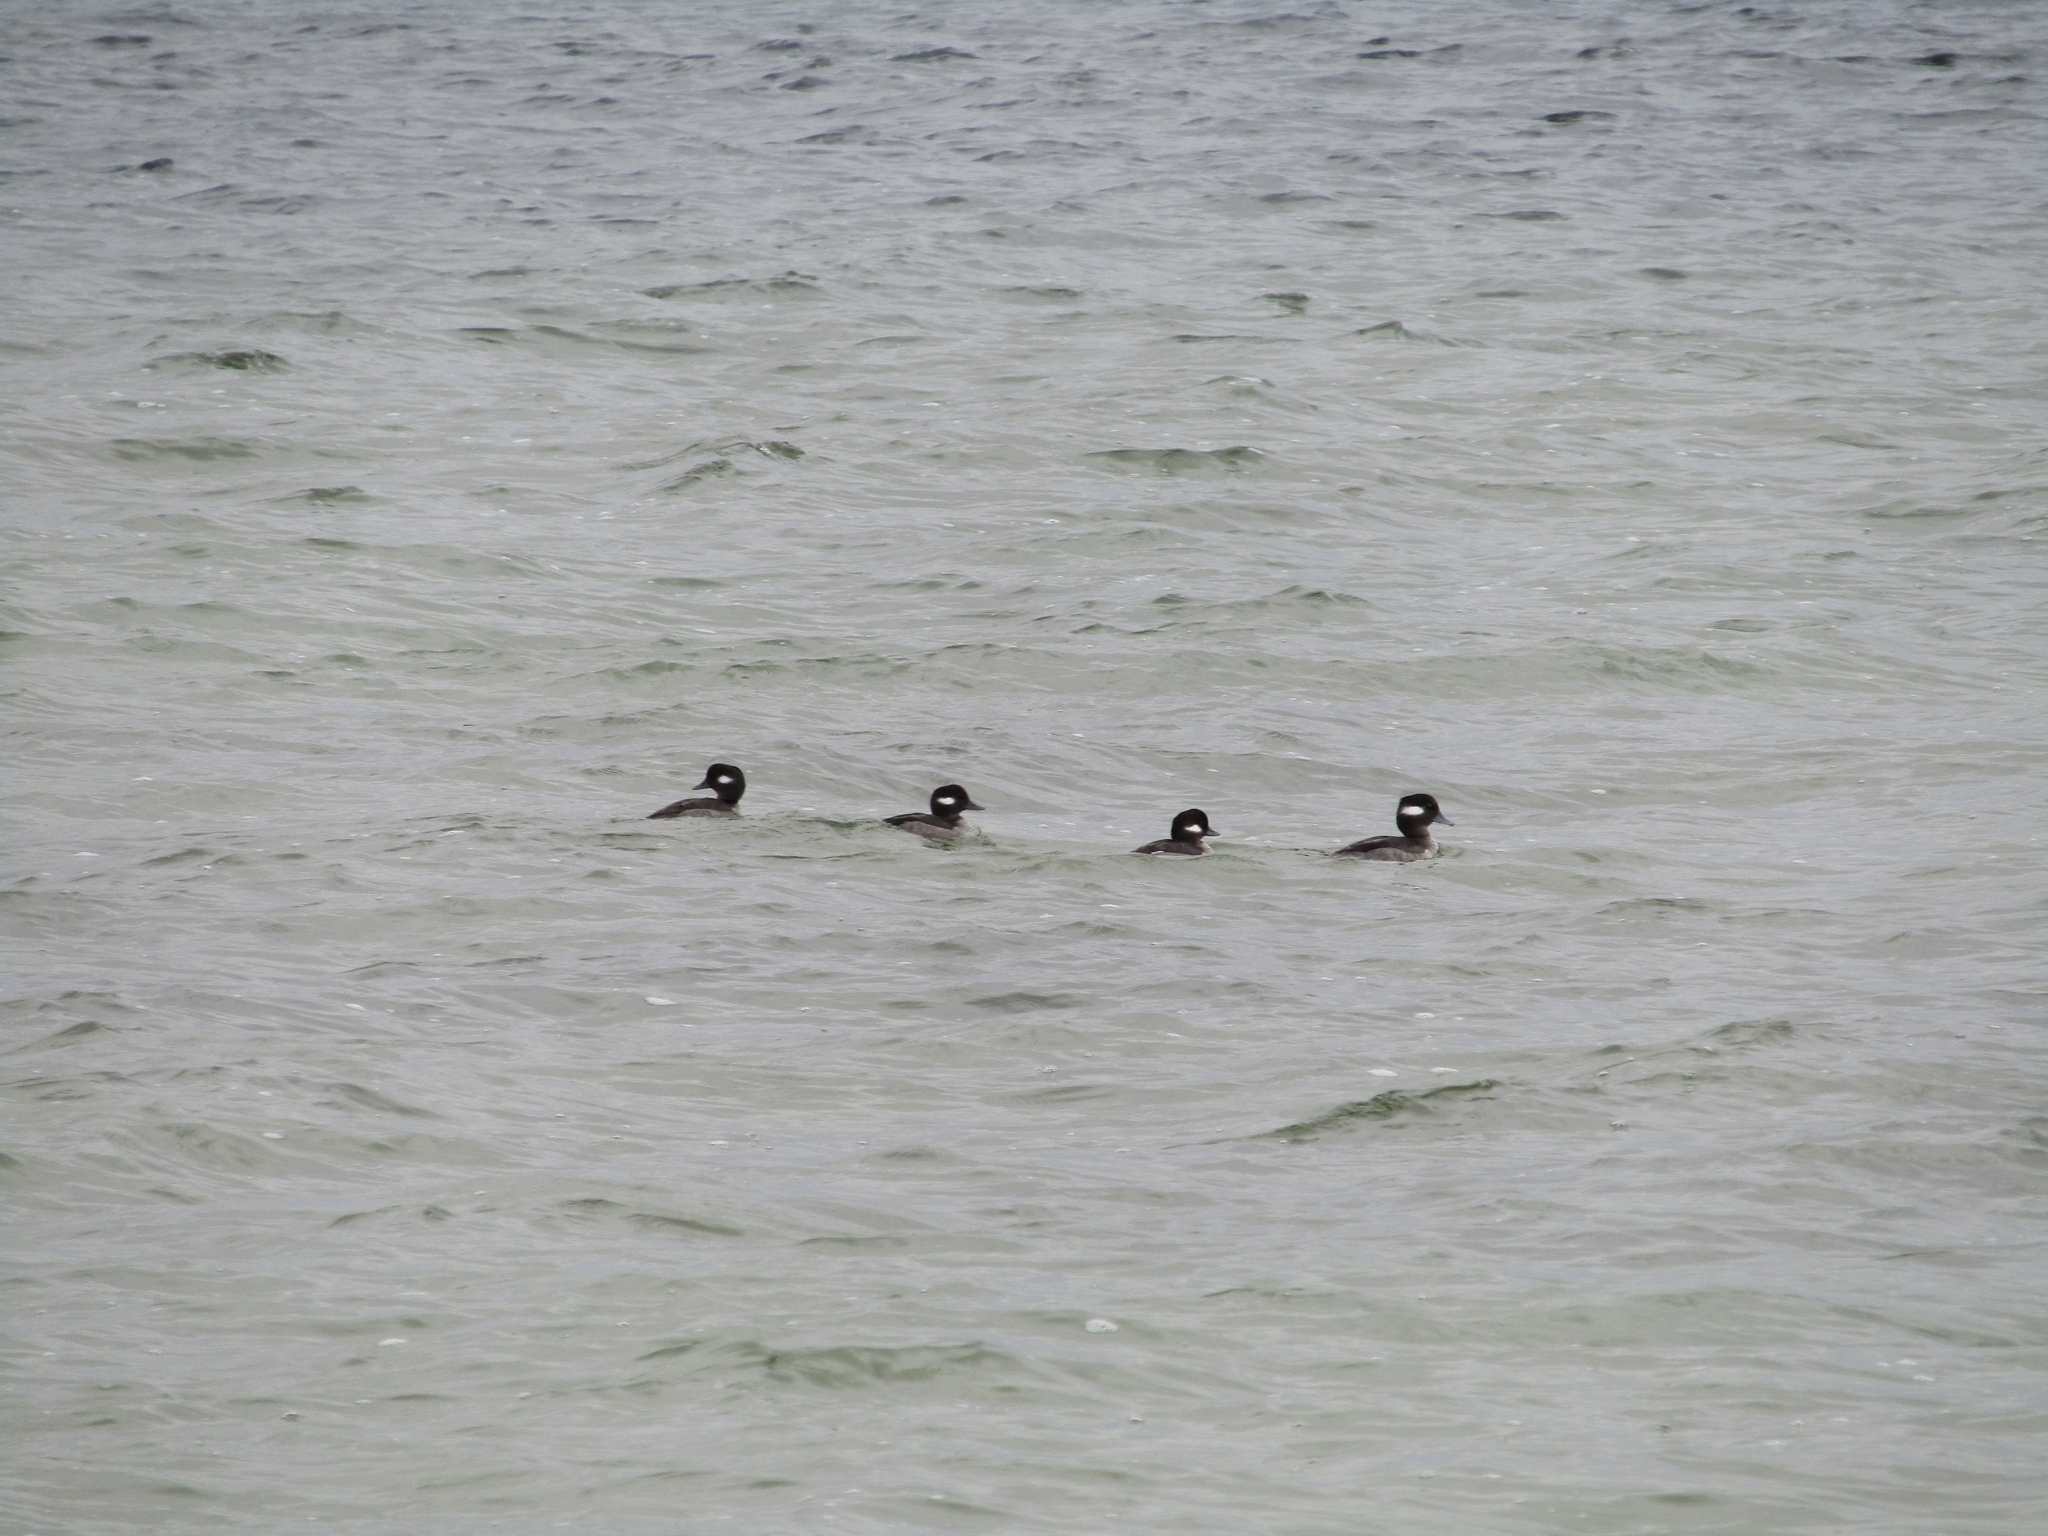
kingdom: Animalia
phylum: Chordata
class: Aves
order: Anseriformes
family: Anatidae
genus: Bucephala
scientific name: Bucephala albeola
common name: Bufflehead
